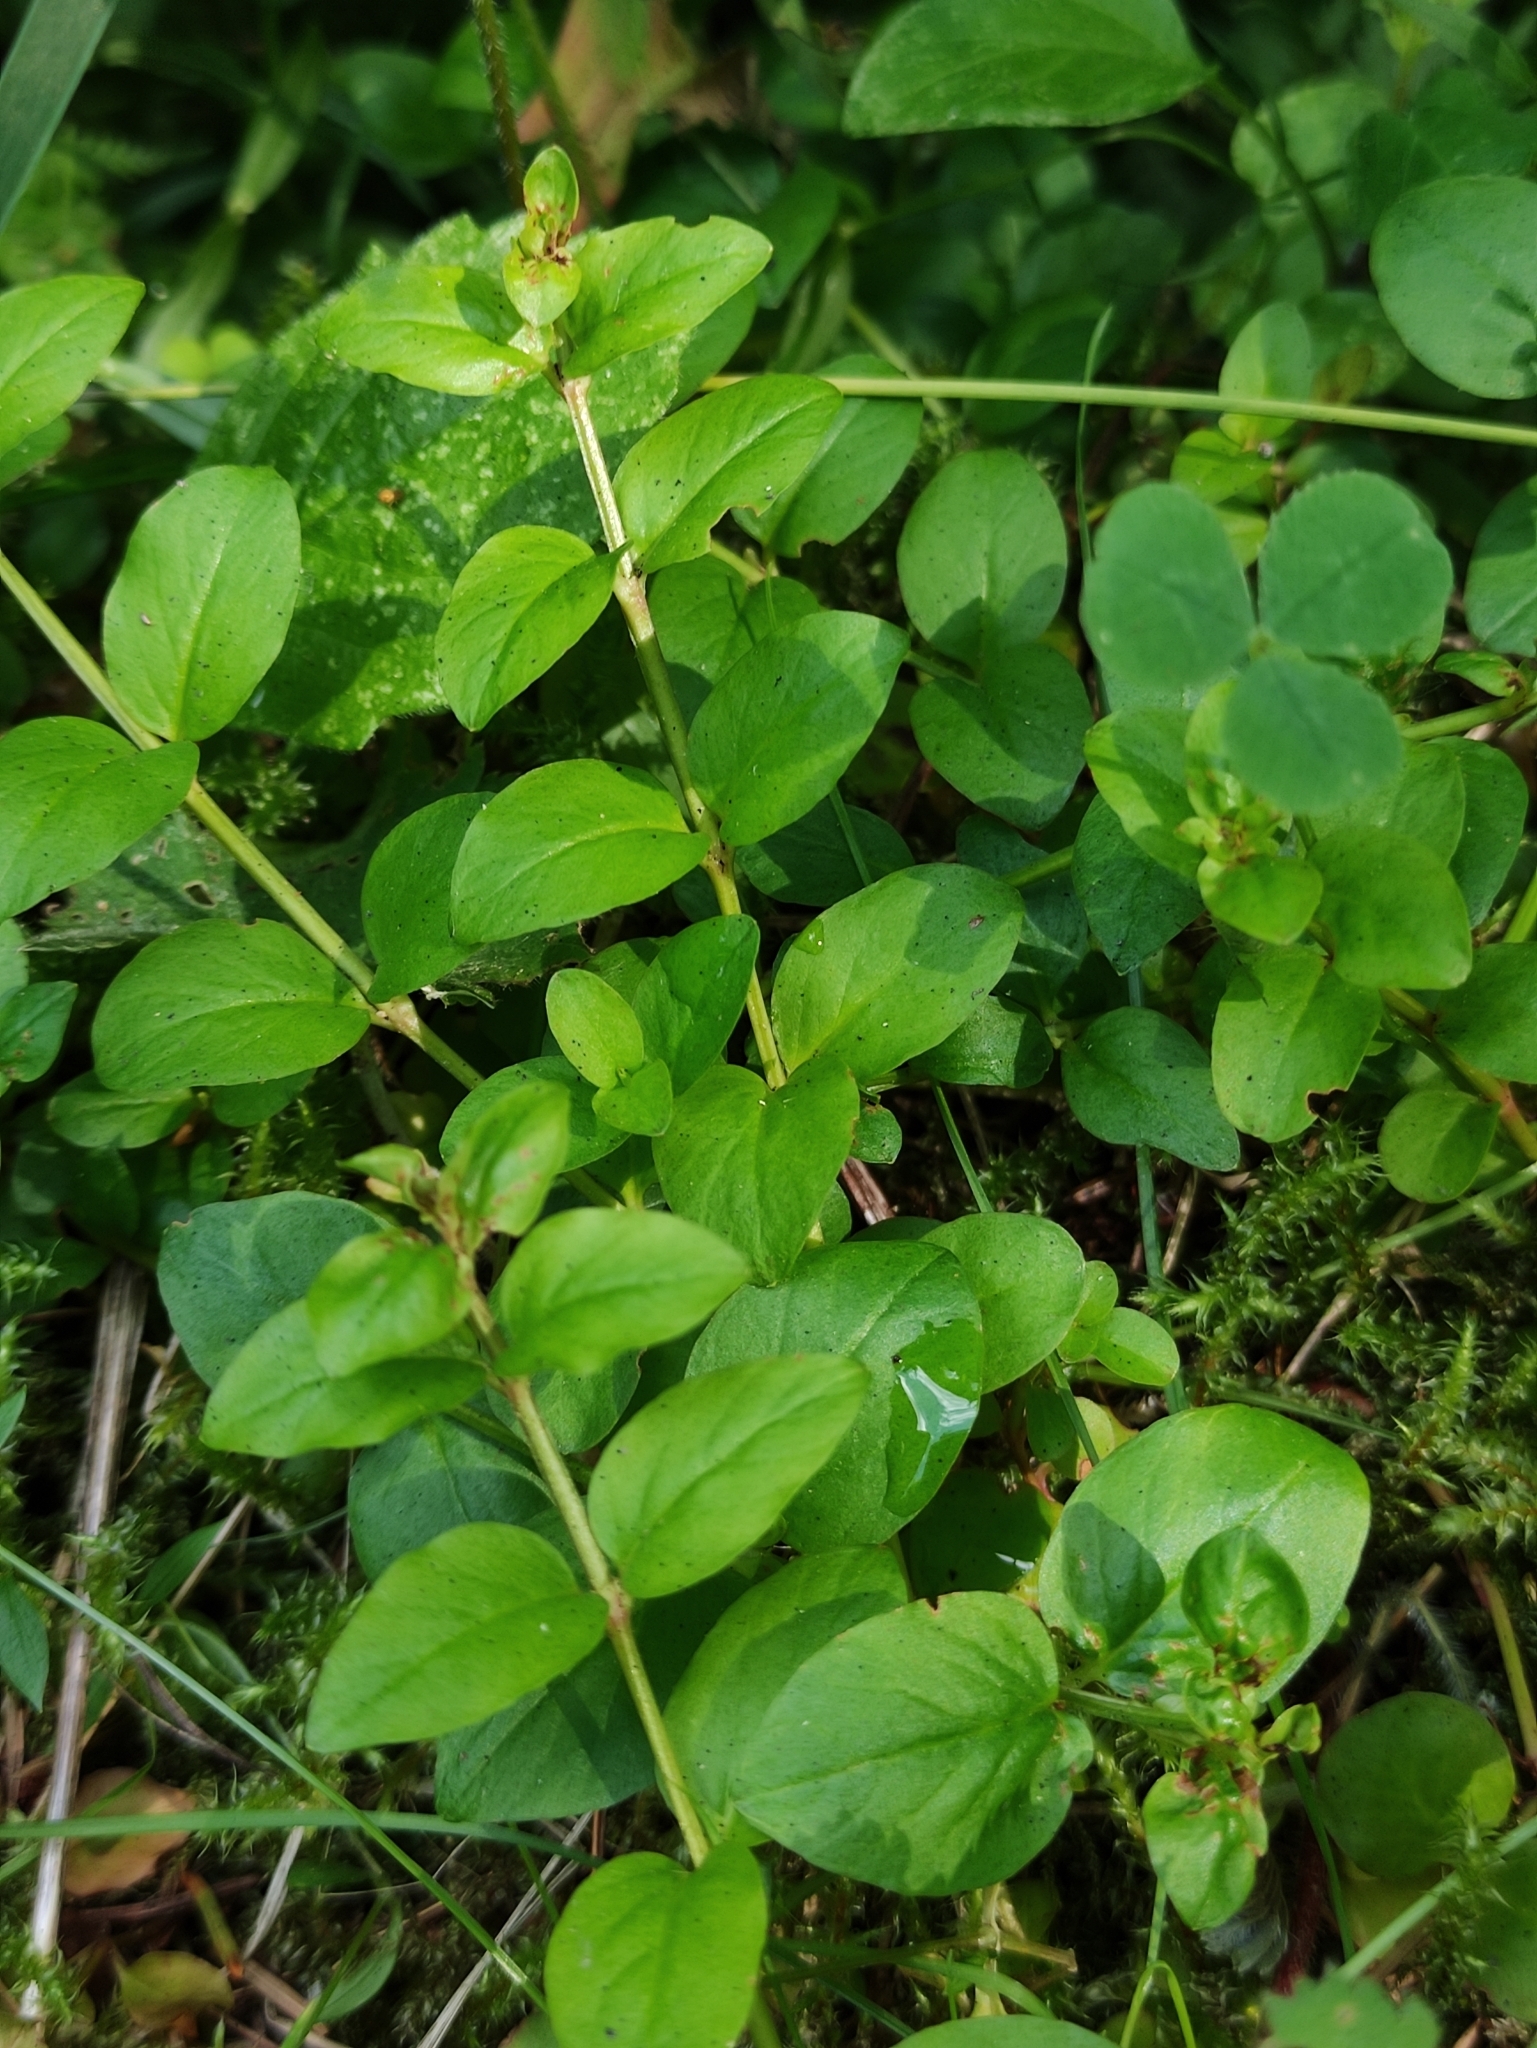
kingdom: Plantae
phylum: Tracheophyta
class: Magnoliopsida
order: Ericales
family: Primulaceae
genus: Lysimachia
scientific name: Lysimachia nummularia
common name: Moneywort
